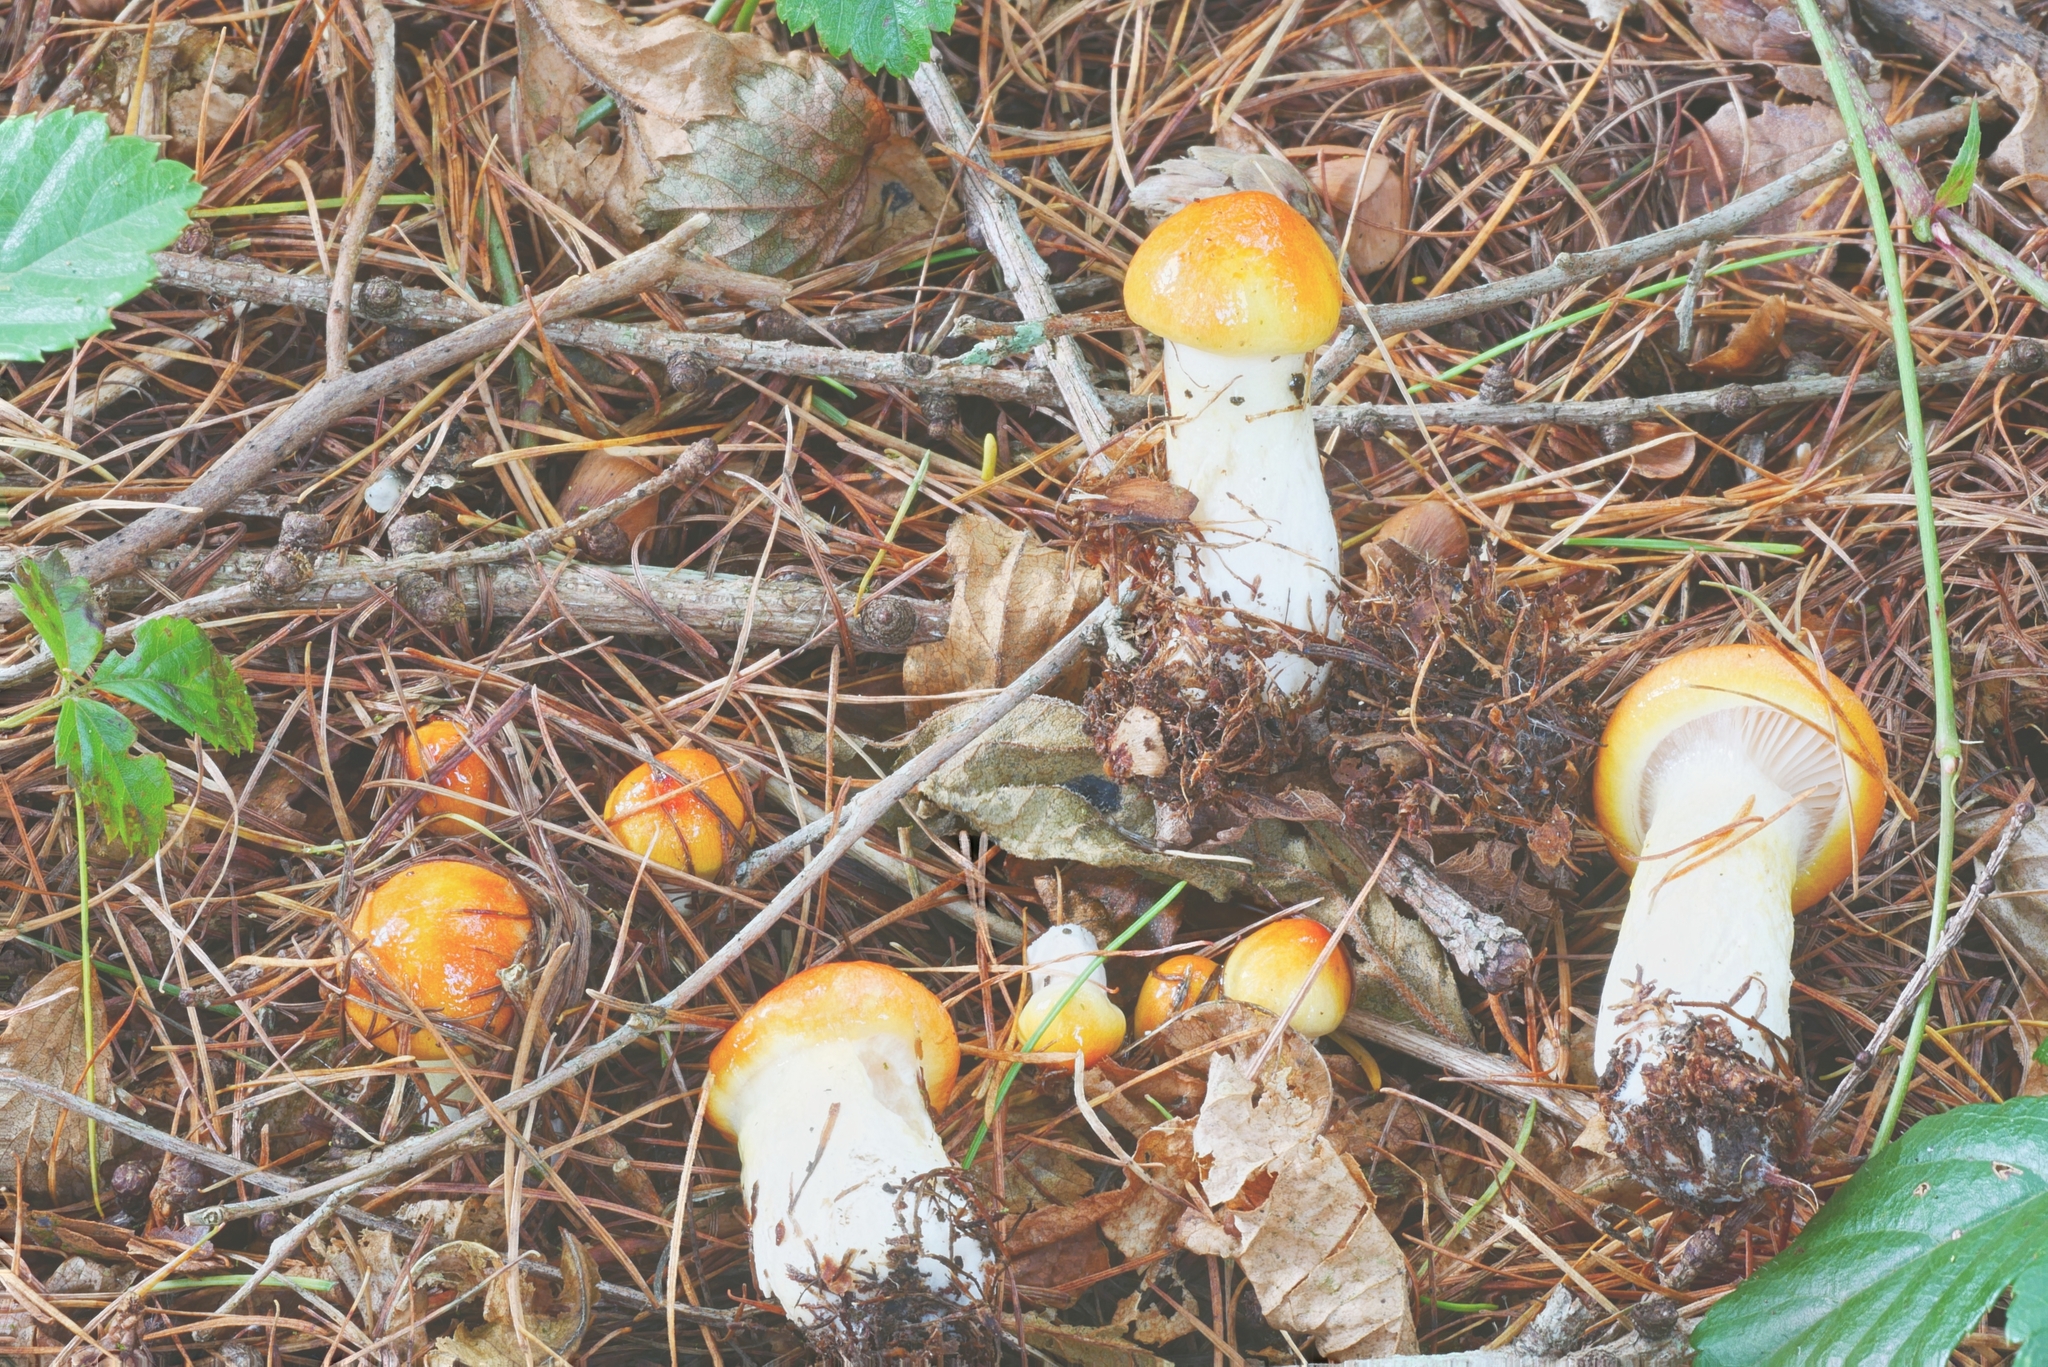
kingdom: Fungi
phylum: Basidiomycota
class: Agaricomycetes
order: Agaricales
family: Hygrophoraceae
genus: Hygrophorus
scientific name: Hygrophorus speciosus
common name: Splendid woodwax
